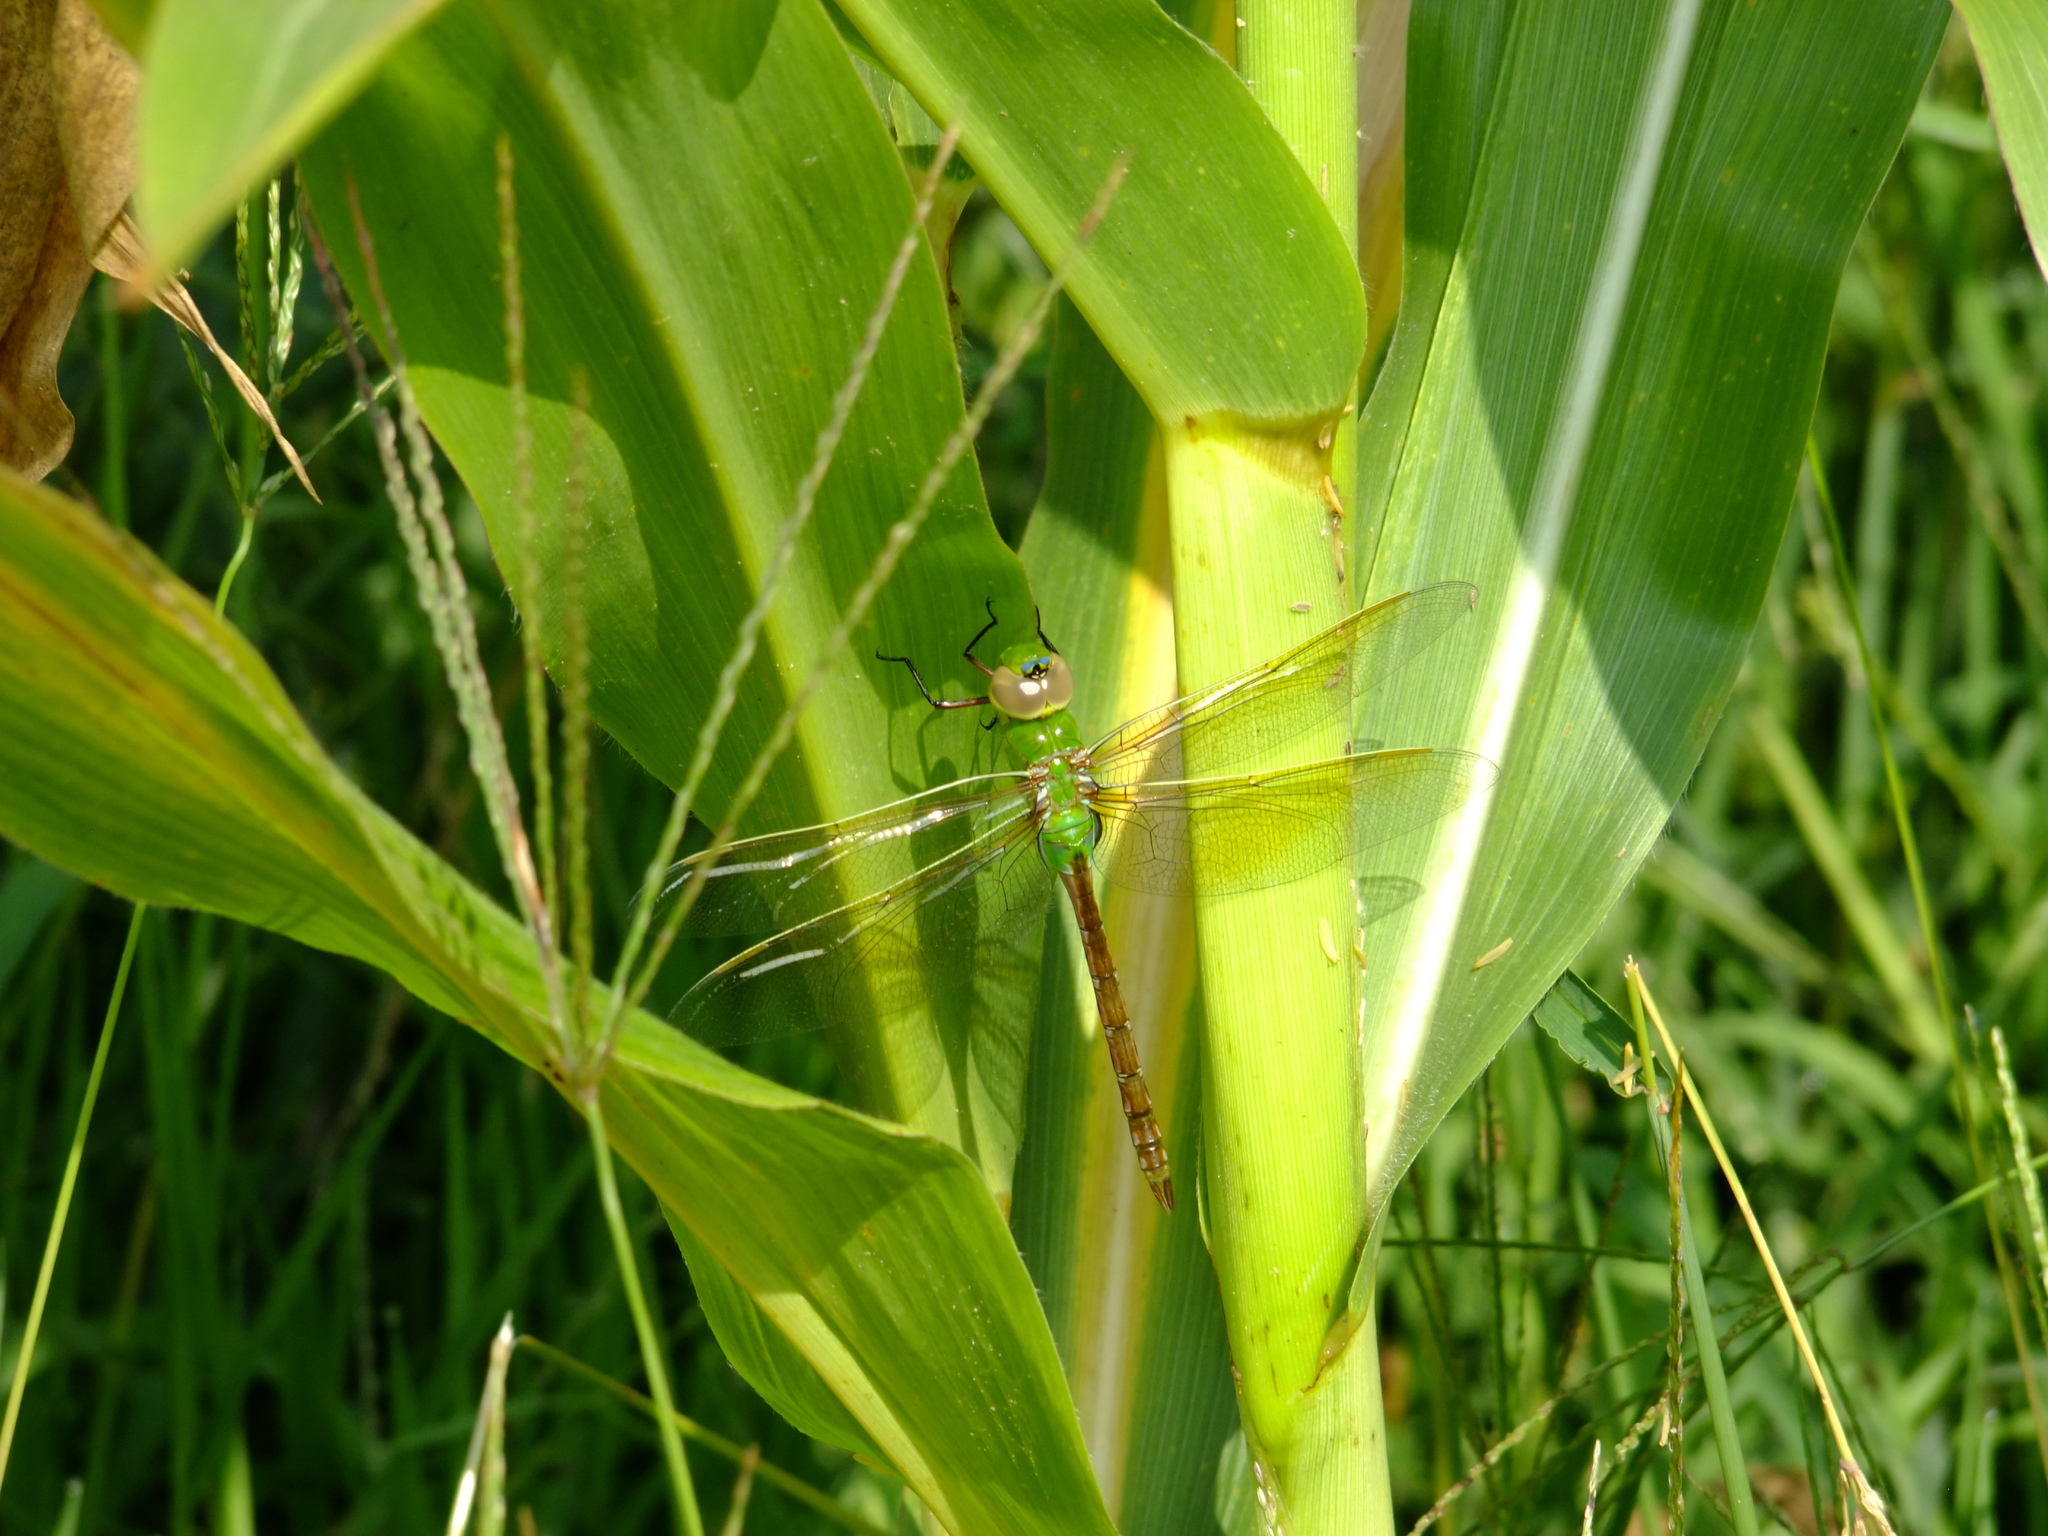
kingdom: Animalia
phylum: Arthropoda
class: Insecta
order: Odonata
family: Aeshnidae
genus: Anax
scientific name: Anax junius
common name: Common green darner
